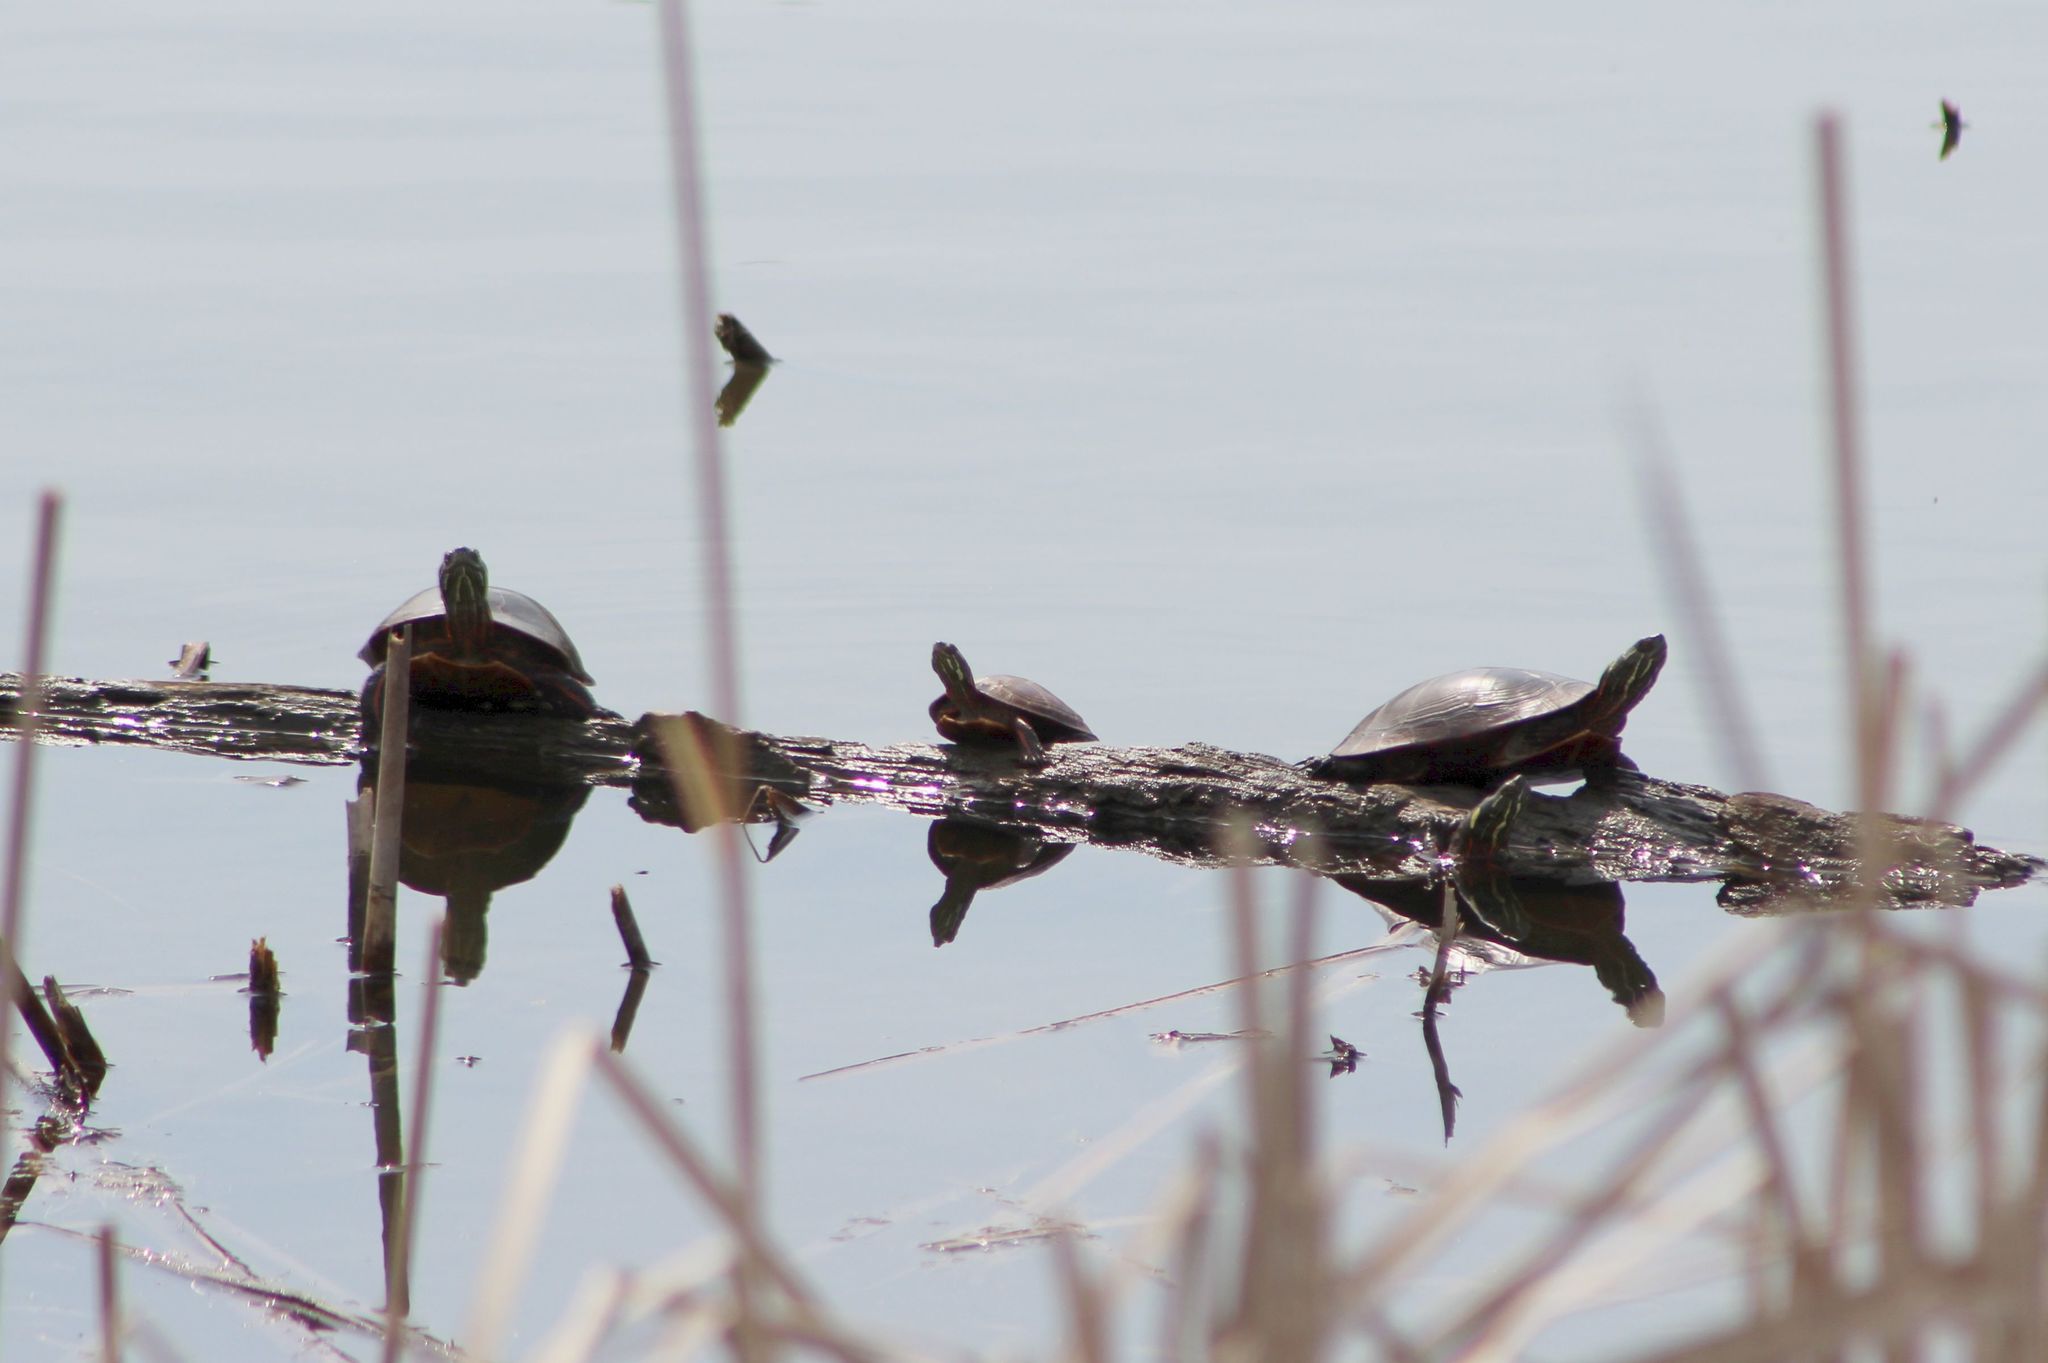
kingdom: Animalia
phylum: Chordata
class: Testudines
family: Emydidae
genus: Chrysemys
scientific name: Chrysemys picta
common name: Painted turtle
